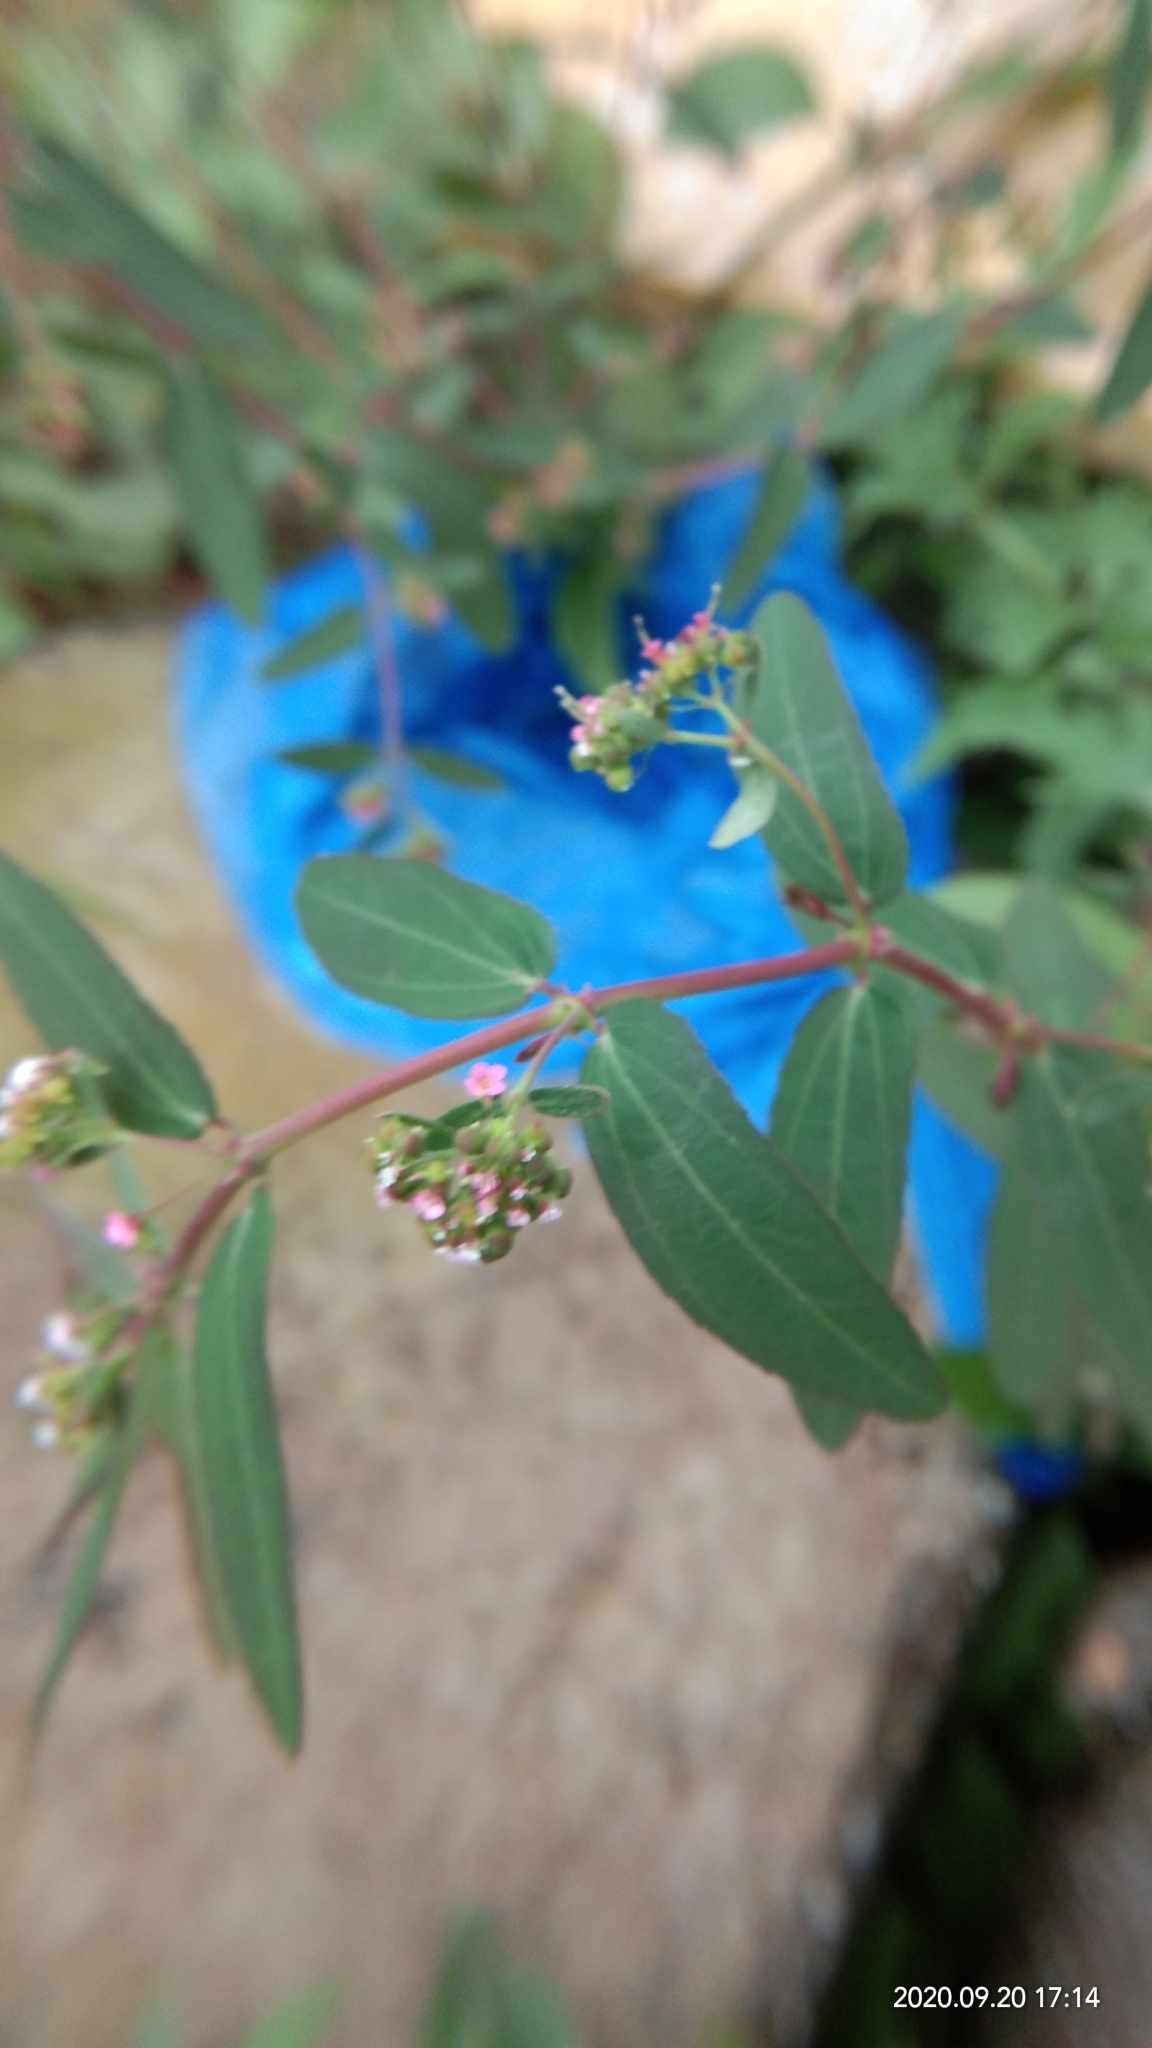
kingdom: Plantae
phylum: Tracheophyta
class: Magnoliopsida
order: Malpighiales
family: Euphorbiaceae
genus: Euphorbia
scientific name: Euphorbia hypericifolia
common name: Graceful sandmat
